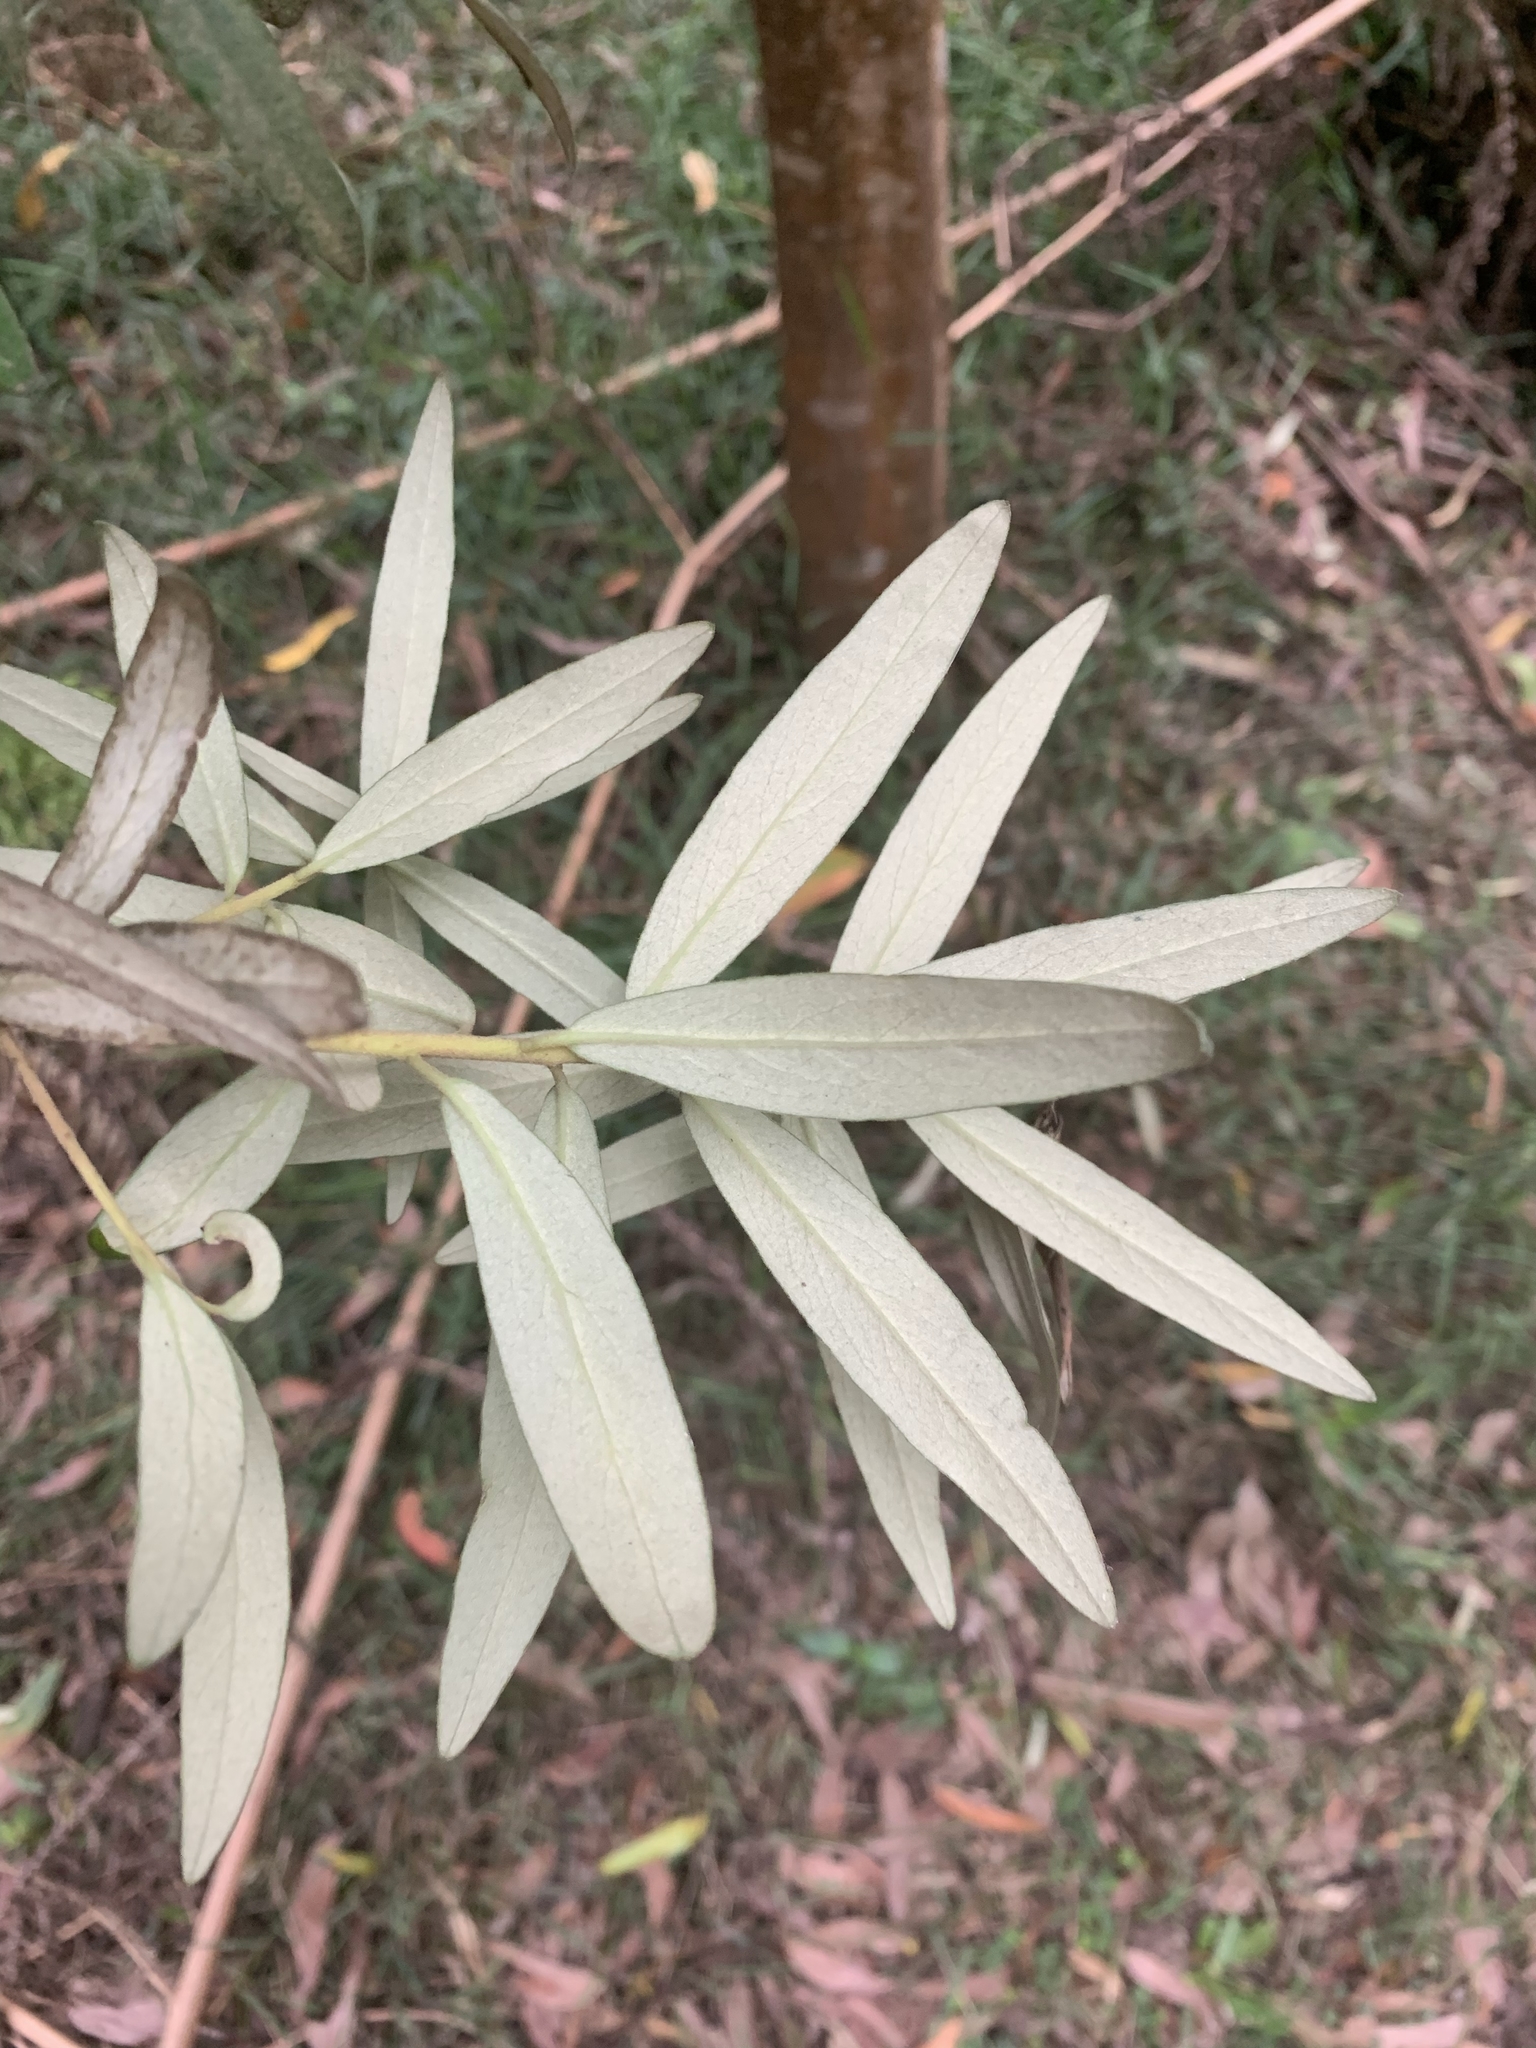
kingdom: Plantae
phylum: Tracheophyta
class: Magnoliopsida
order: Apiales
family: Pittosporaceae
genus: Pittosporum
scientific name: Pittosporum bicolor
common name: Tallowwood
